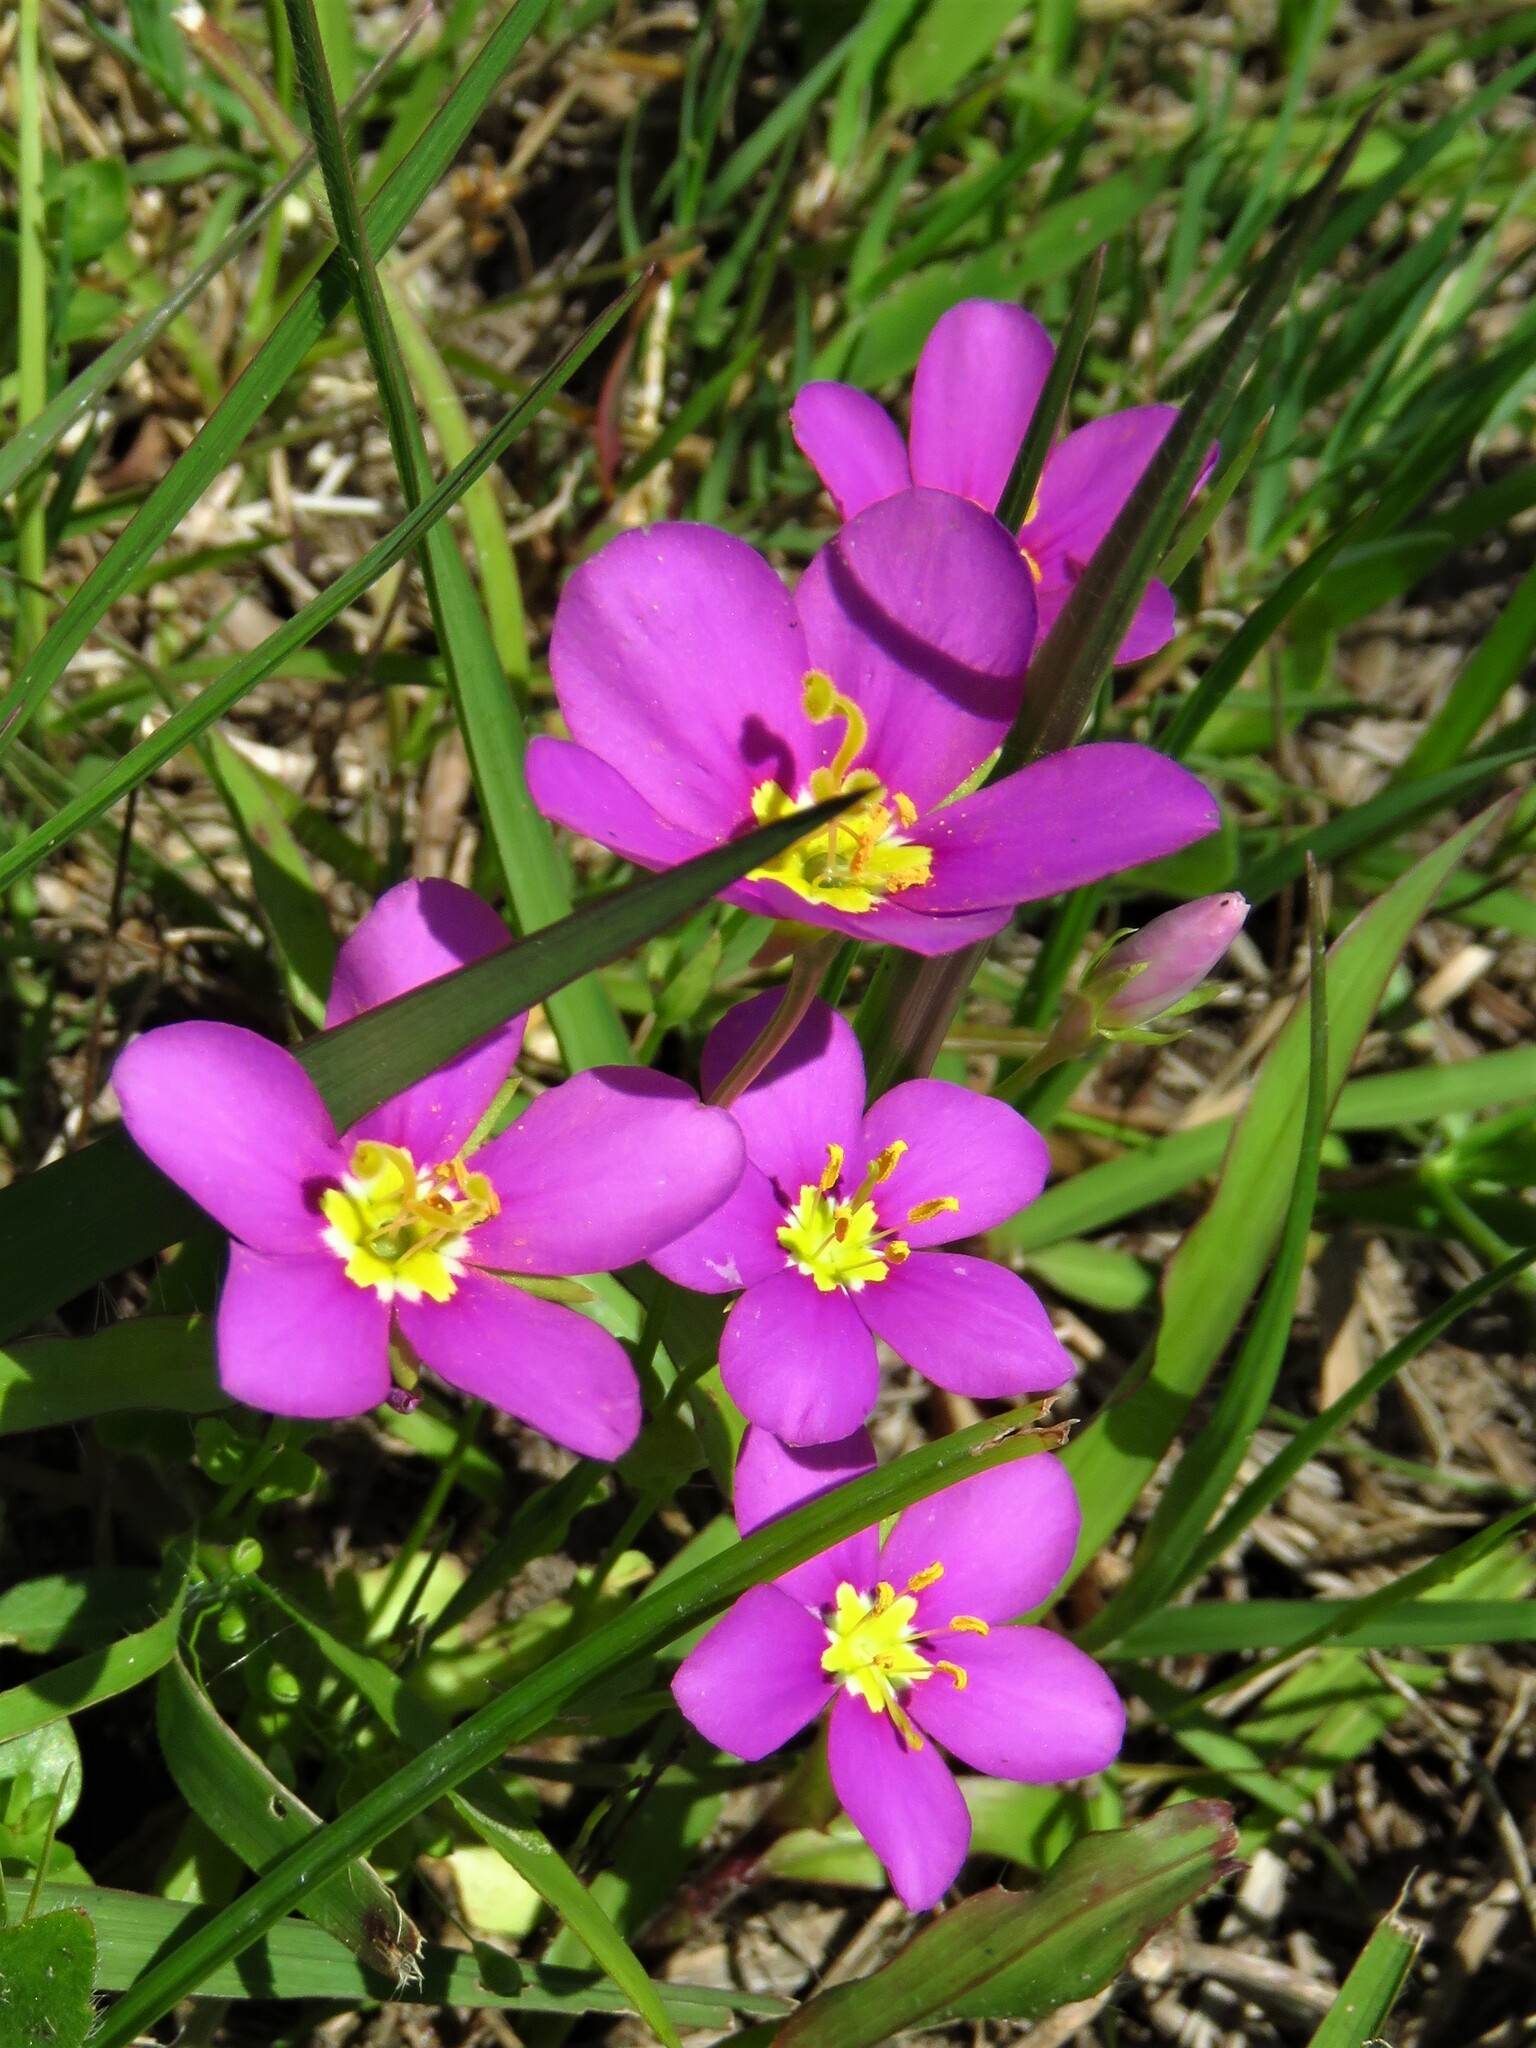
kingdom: Plantae
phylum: Tracheophyta
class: Magnoliopsida
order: Gentianales
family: Gentianaceae
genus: Sabatia
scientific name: Sabatia campestris
